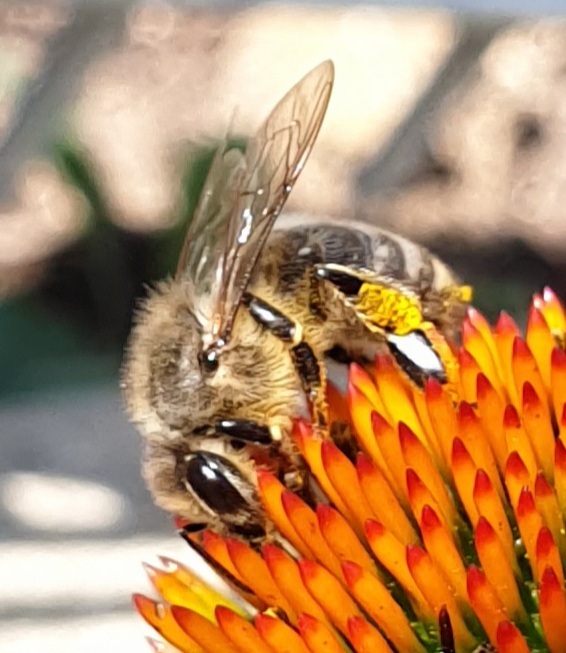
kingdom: Animalia
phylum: Arthropoda
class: Insecta
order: Hymenoptera
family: Apidae
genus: Apis
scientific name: Apis mellifera
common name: Honey bee
